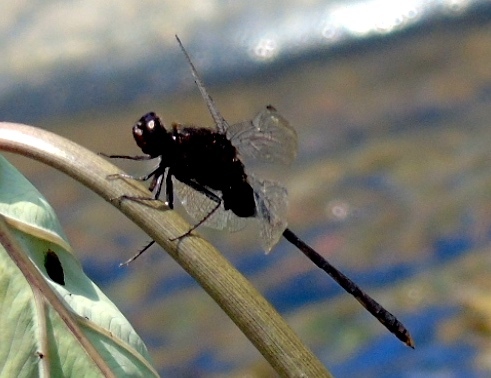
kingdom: Animalia
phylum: Arthropoda
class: Insecta
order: Odonata
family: Libellulidae
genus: Erythemis
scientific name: Erythemis plebeja
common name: Pin-tailed pondhawk
